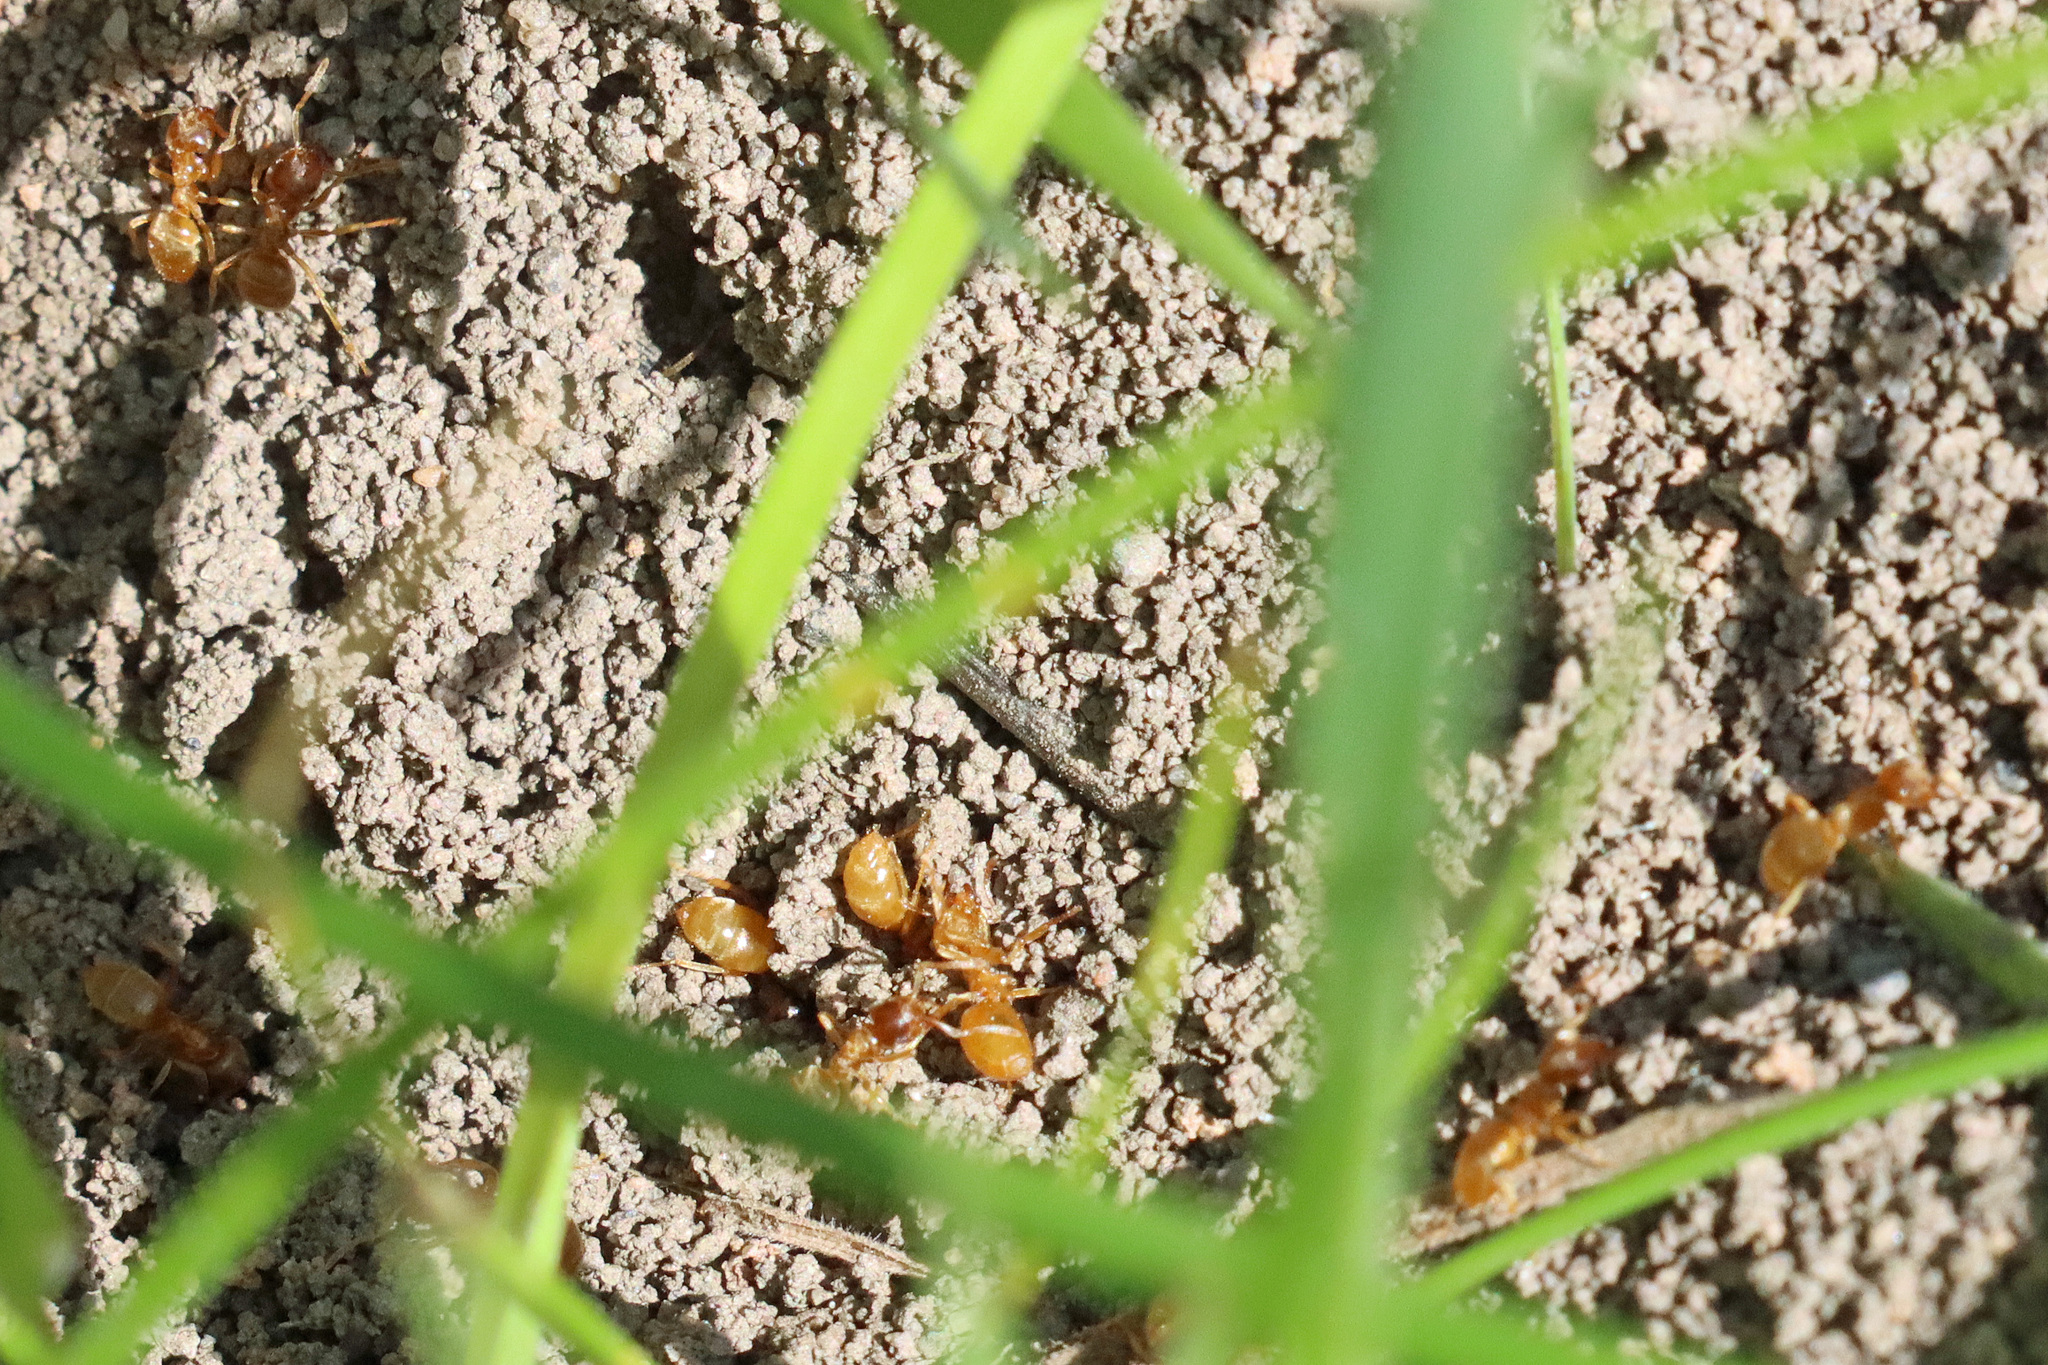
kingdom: Animalia
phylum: Arthropoda
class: Insecta
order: Hymenoptera
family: Formicidae
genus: Lasius
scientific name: Lasius flavus
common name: Blond field ant
